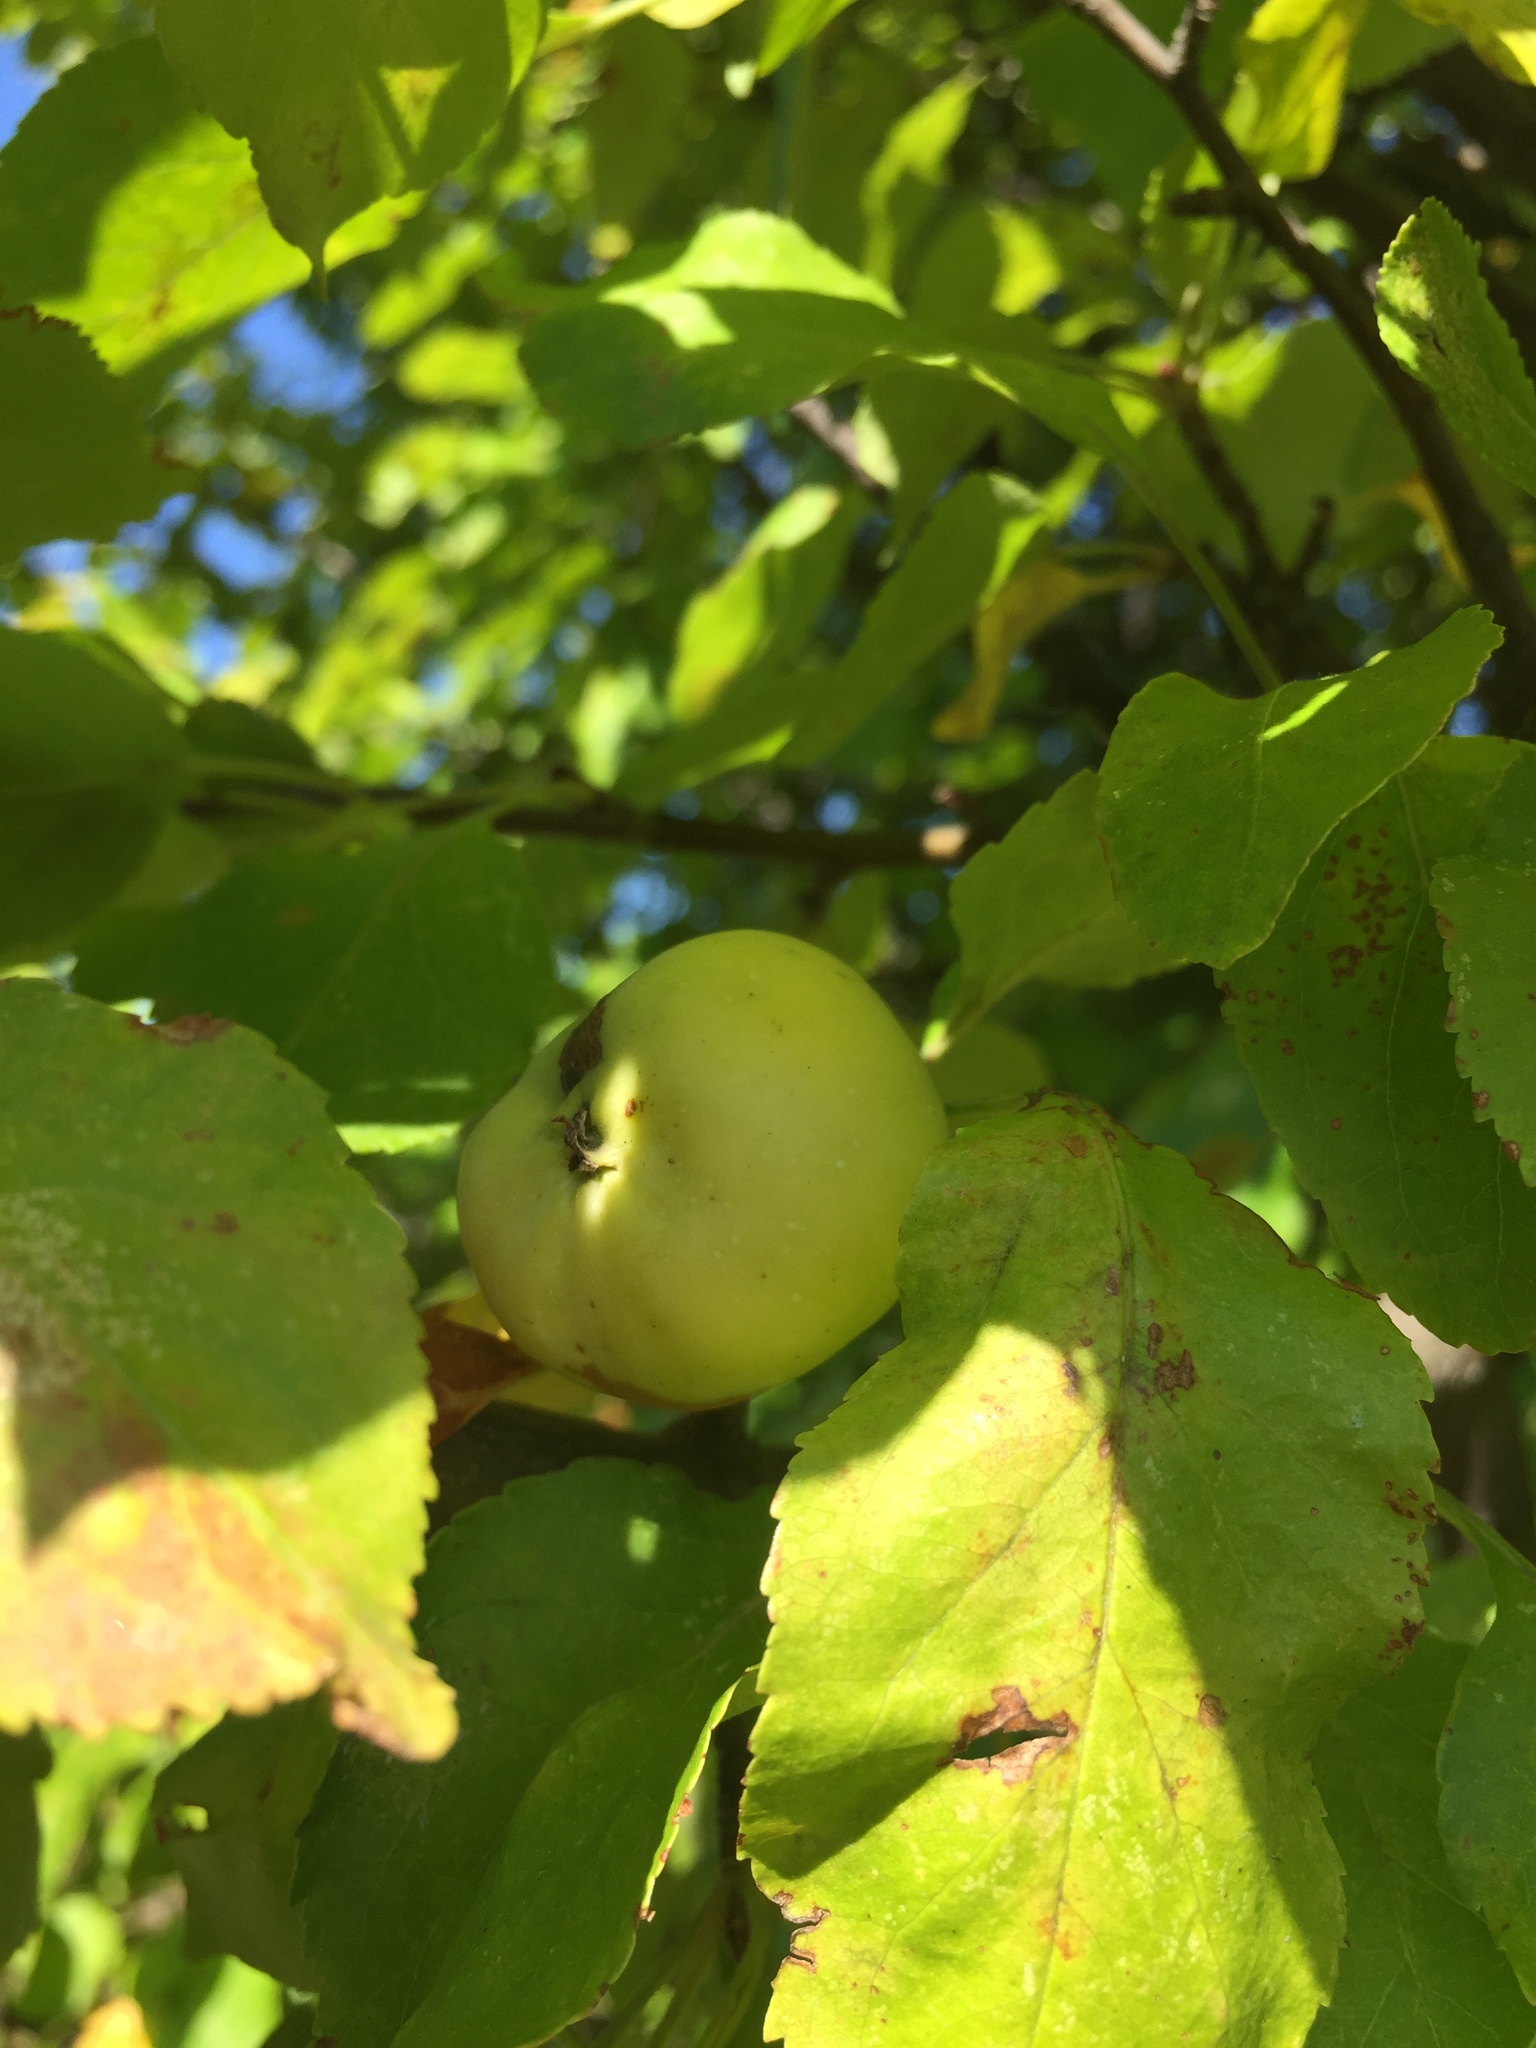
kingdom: Plantae
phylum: Tracheophyta
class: Magnoliopsida
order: Rosales
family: Rosaceae
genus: Malus
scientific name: Malus domestica
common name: Apple
